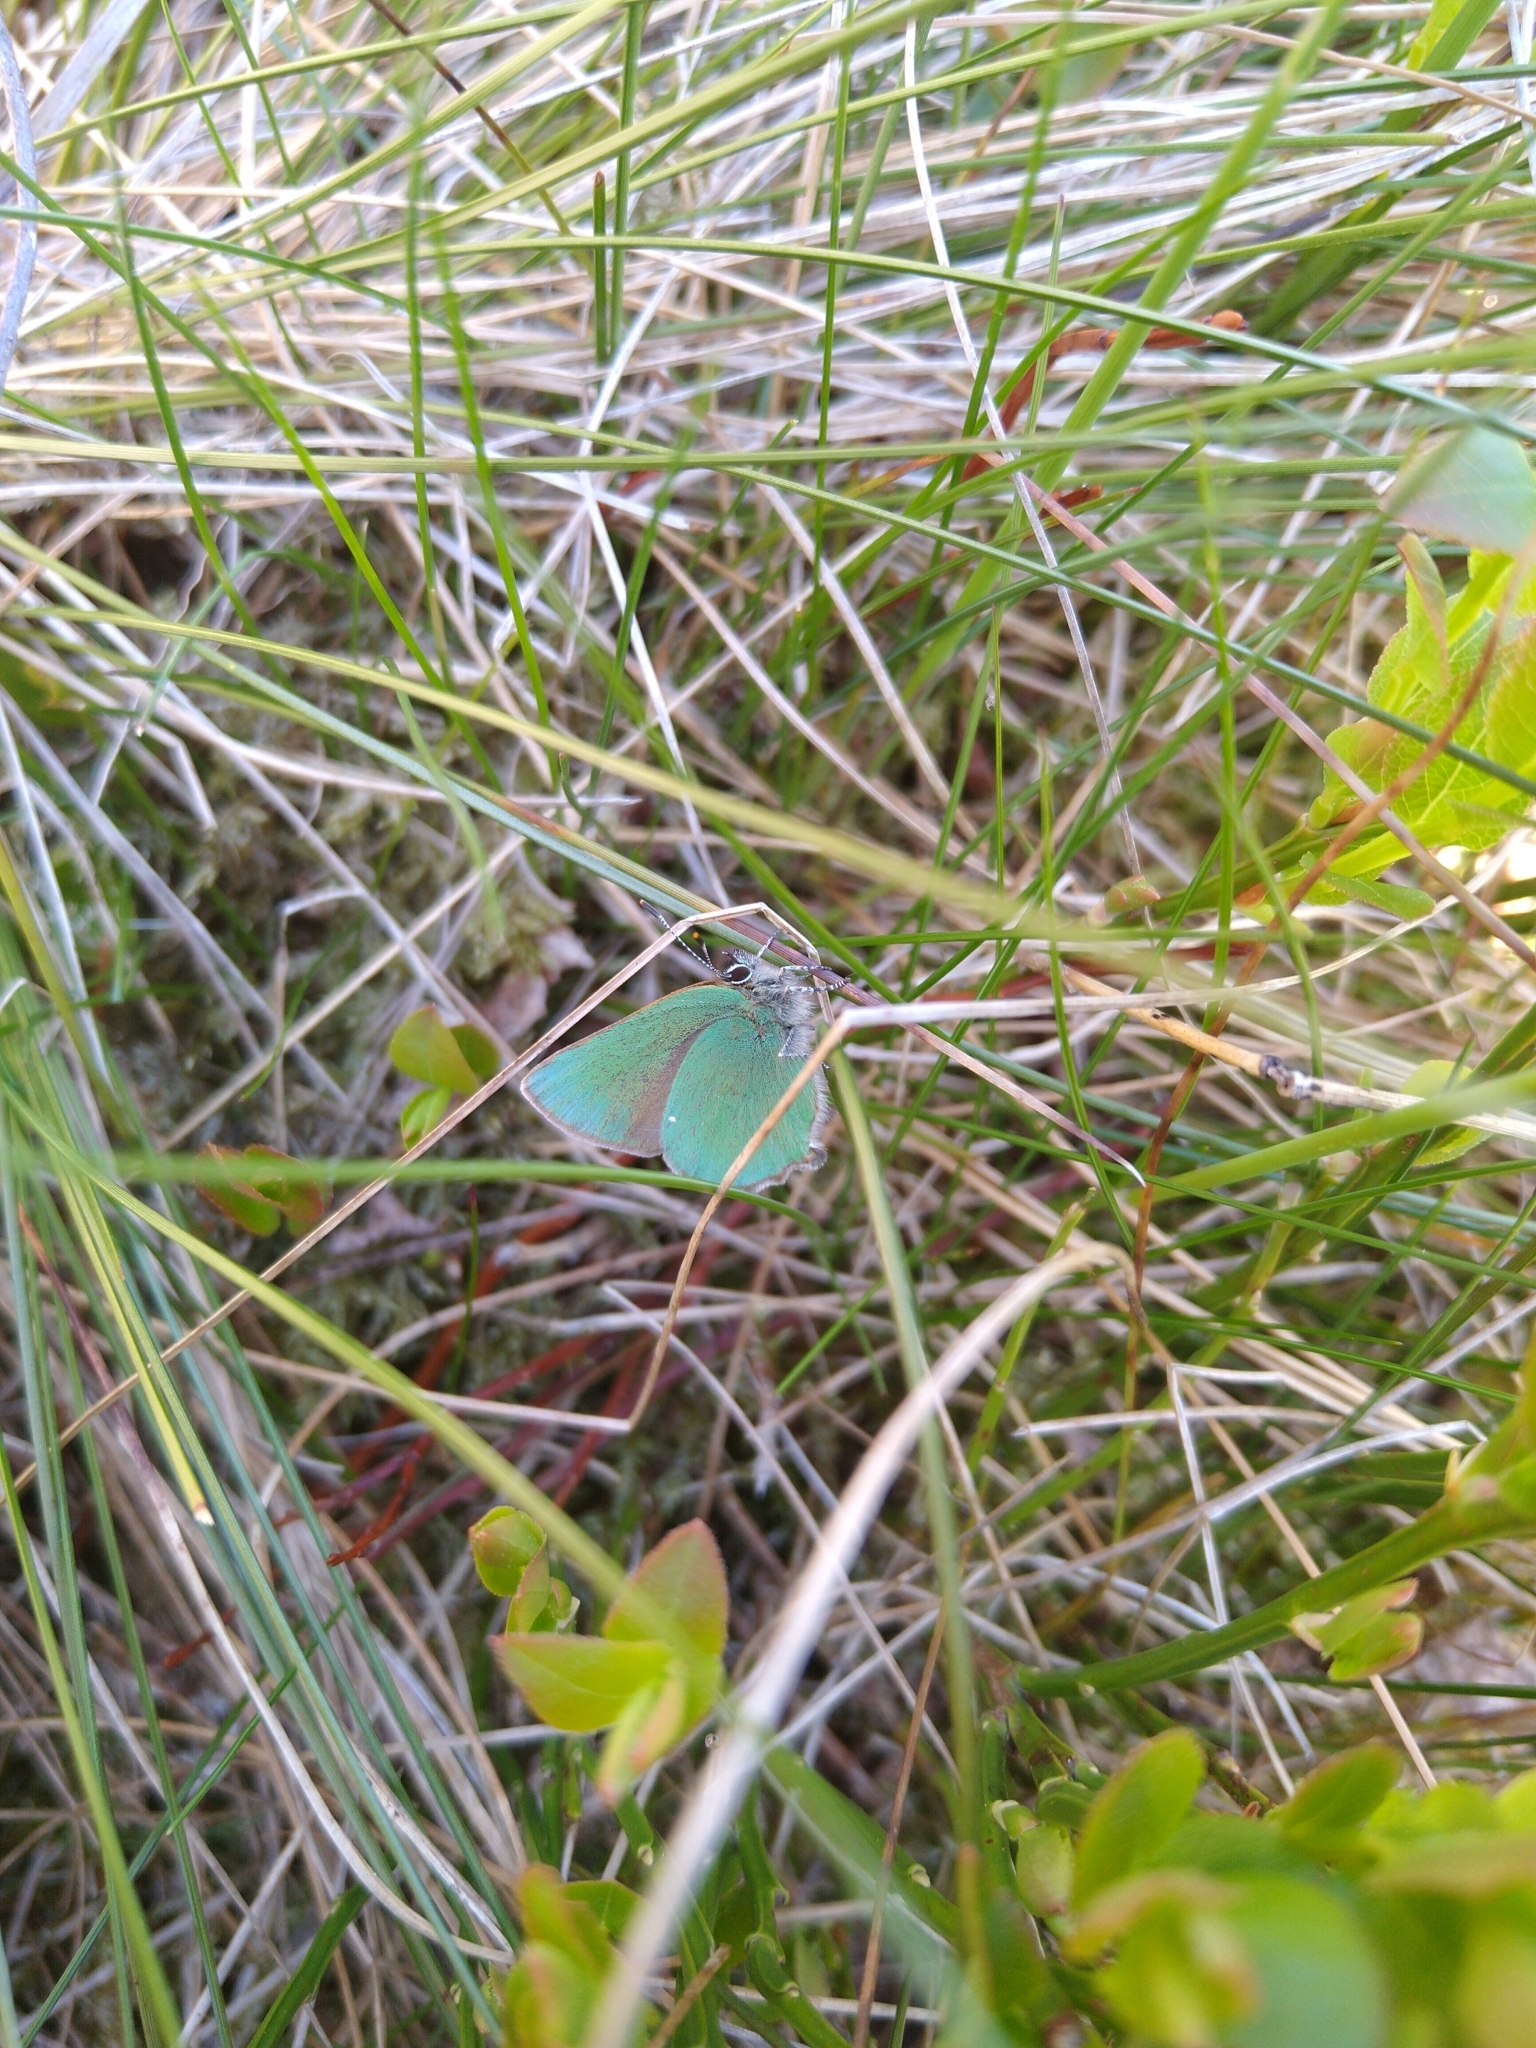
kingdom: Animalia
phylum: Arthropoda
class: Insecta
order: Lepidoptera
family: Lycaenidae
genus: Callophrys
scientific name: Callophrys rubi
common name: Green hairstreak
